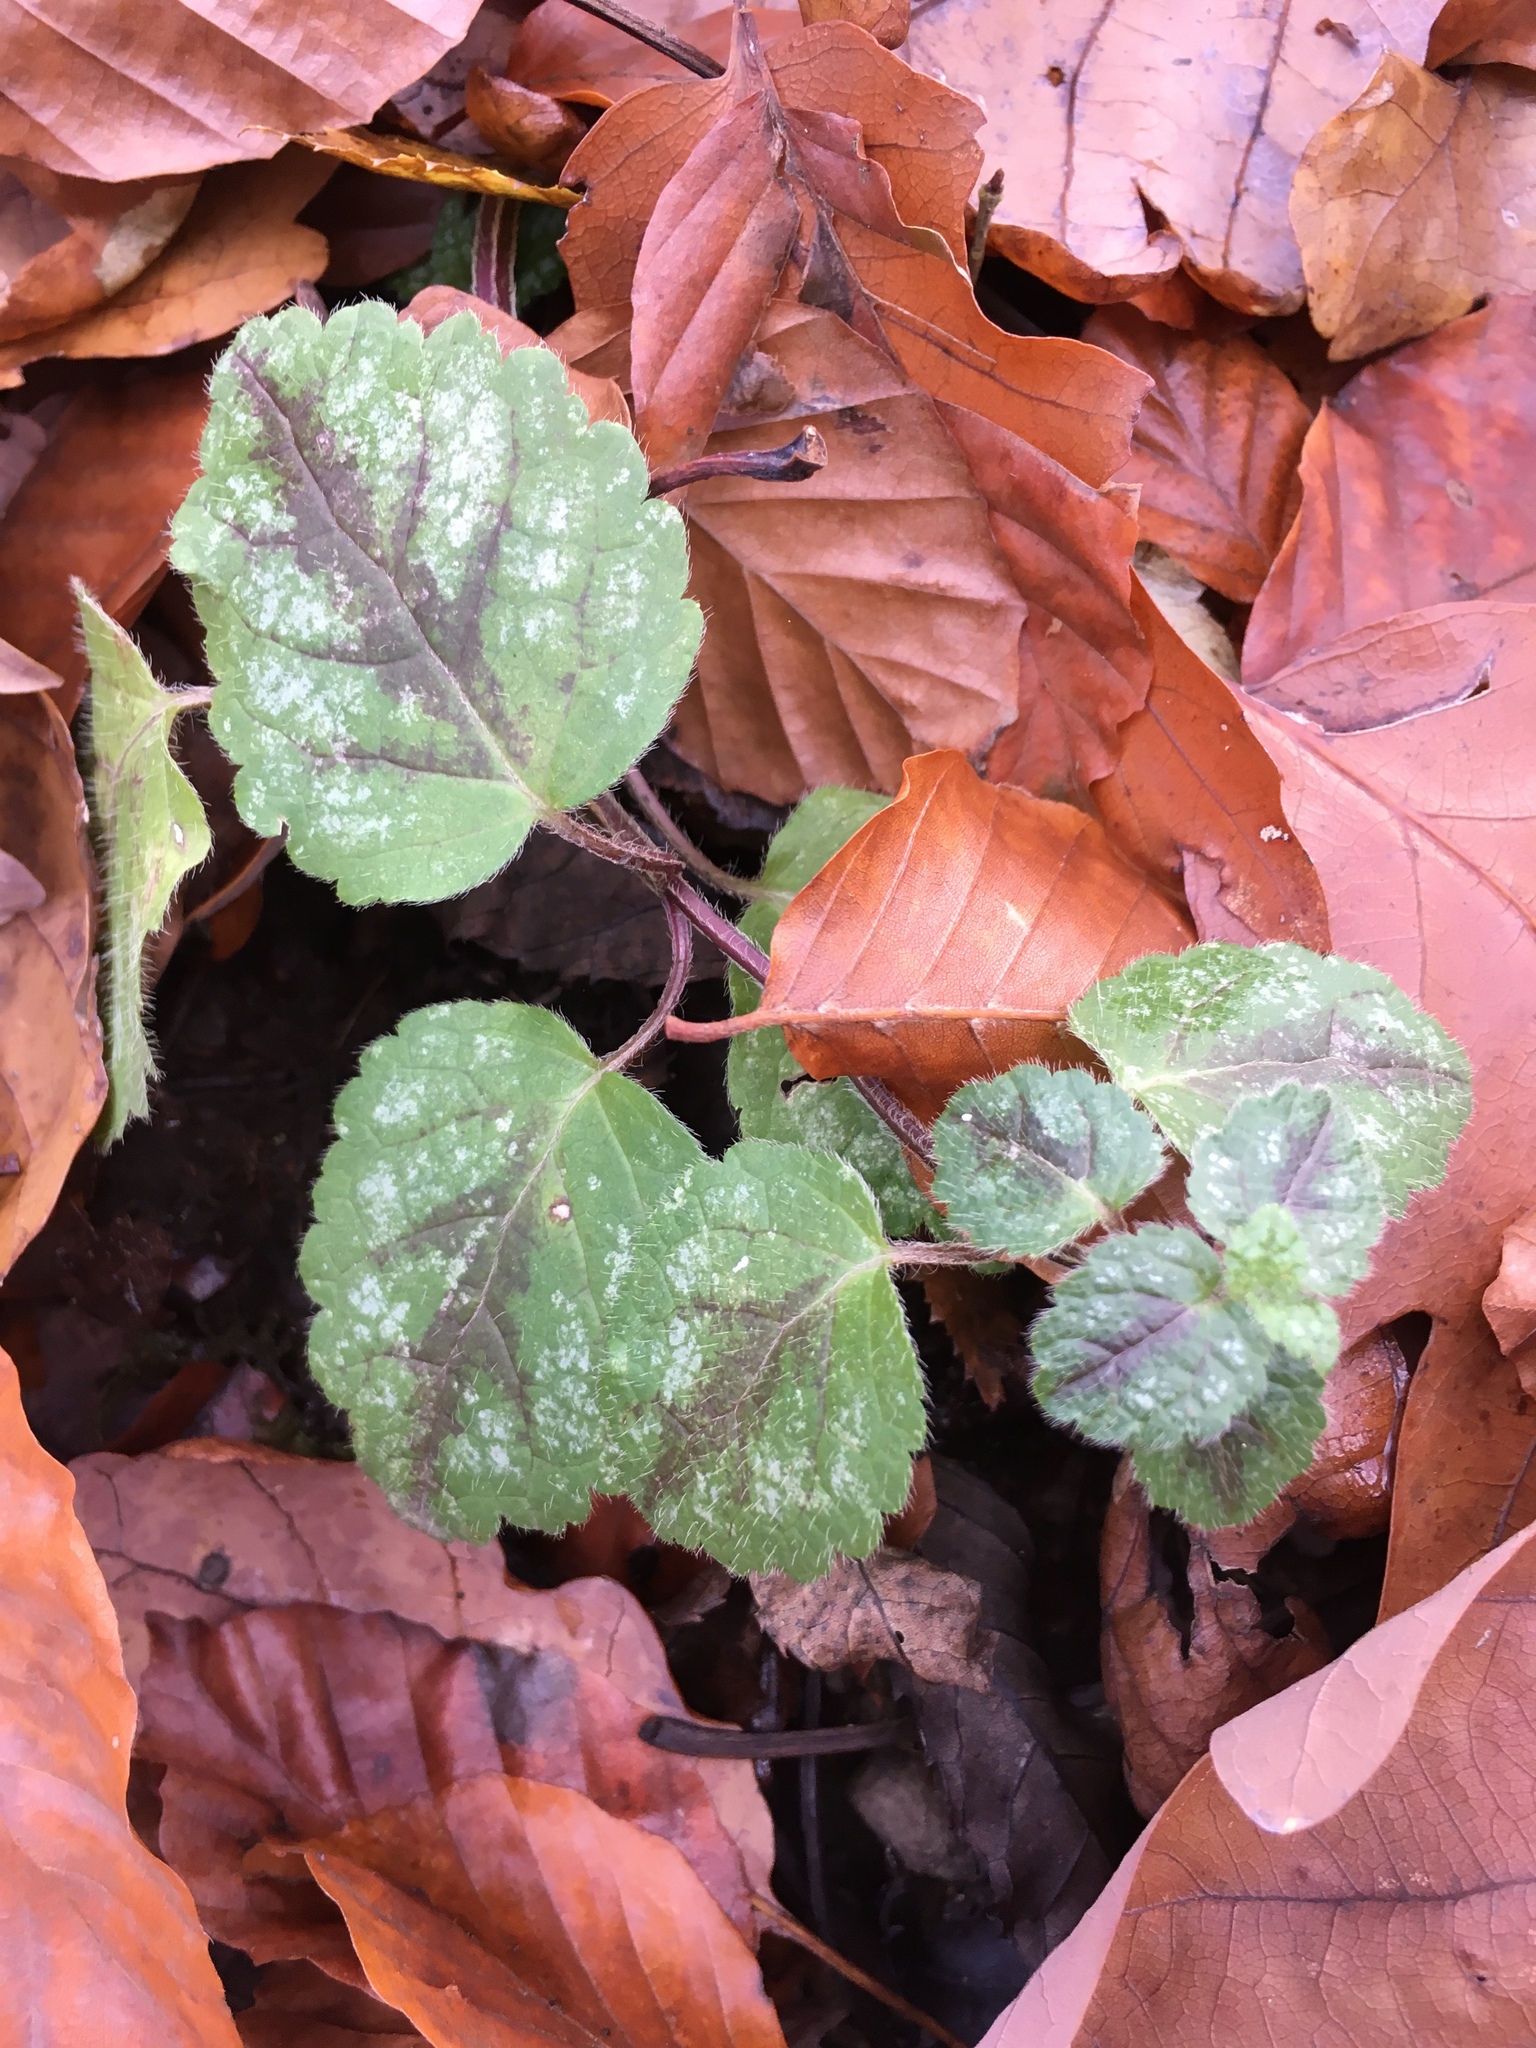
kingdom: Plantae
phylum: Tracheophyta
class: Magnoliopsida
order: Lamiales
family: Lamiaceae
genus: Lamium
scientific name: Lamium galeobdolon
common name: Yellow archangel
